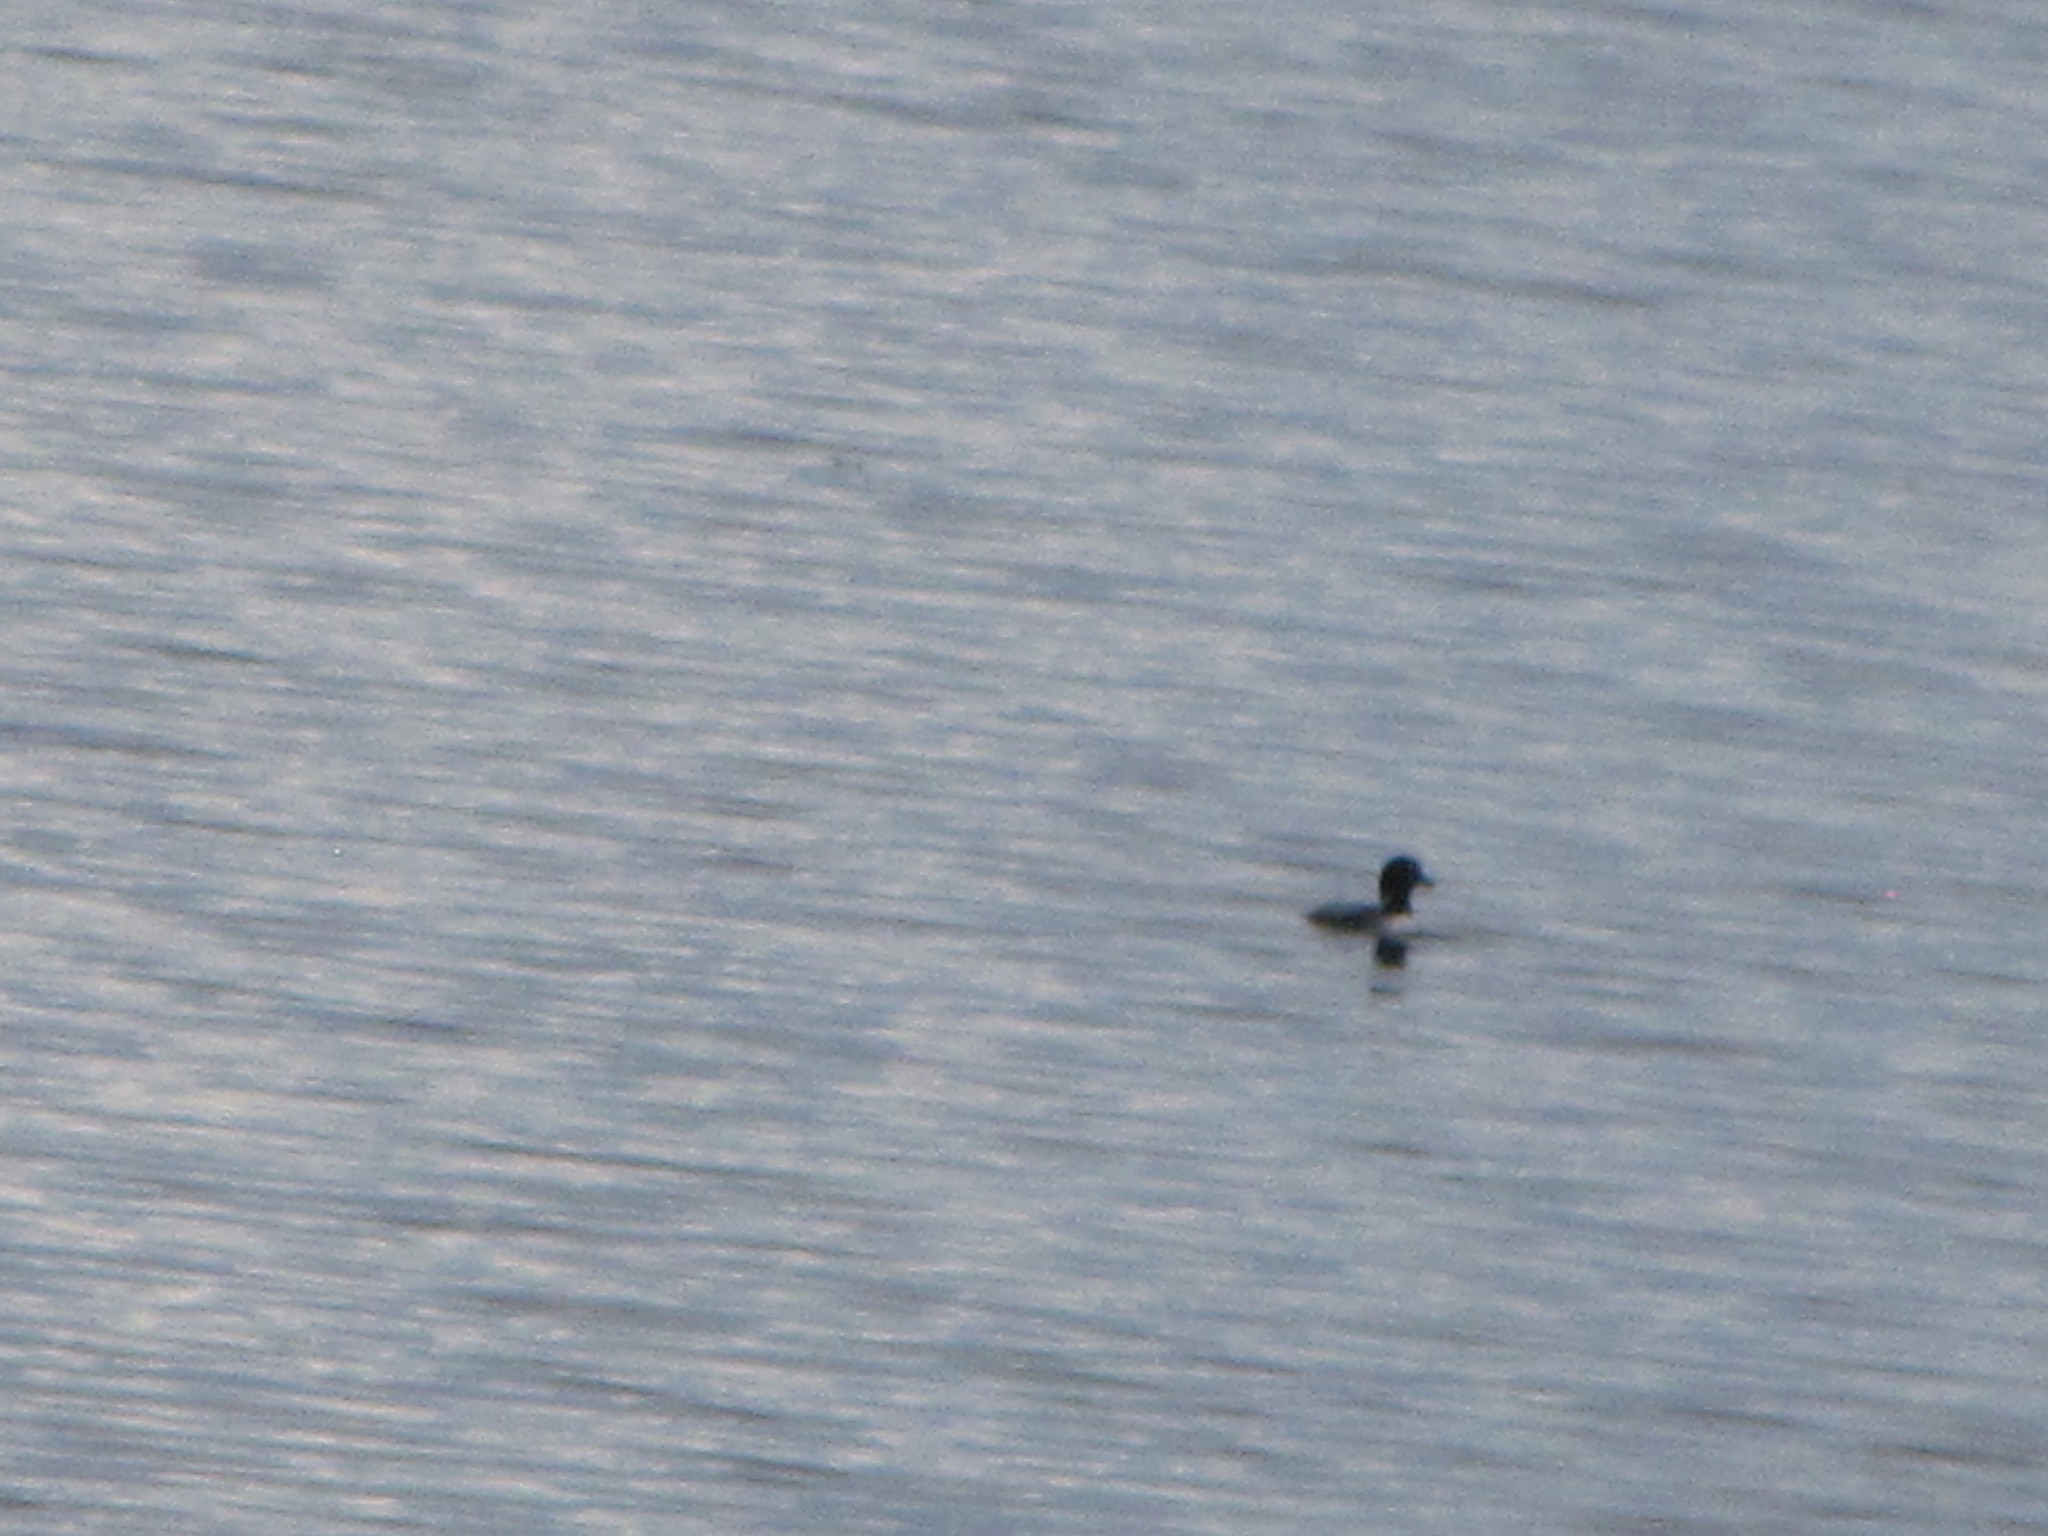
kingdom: Animalia
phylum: Chordata
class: Aves
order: Gaviiformes
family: Gaviidae
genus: Gavia
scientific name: Gavia immer
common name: Common loon
